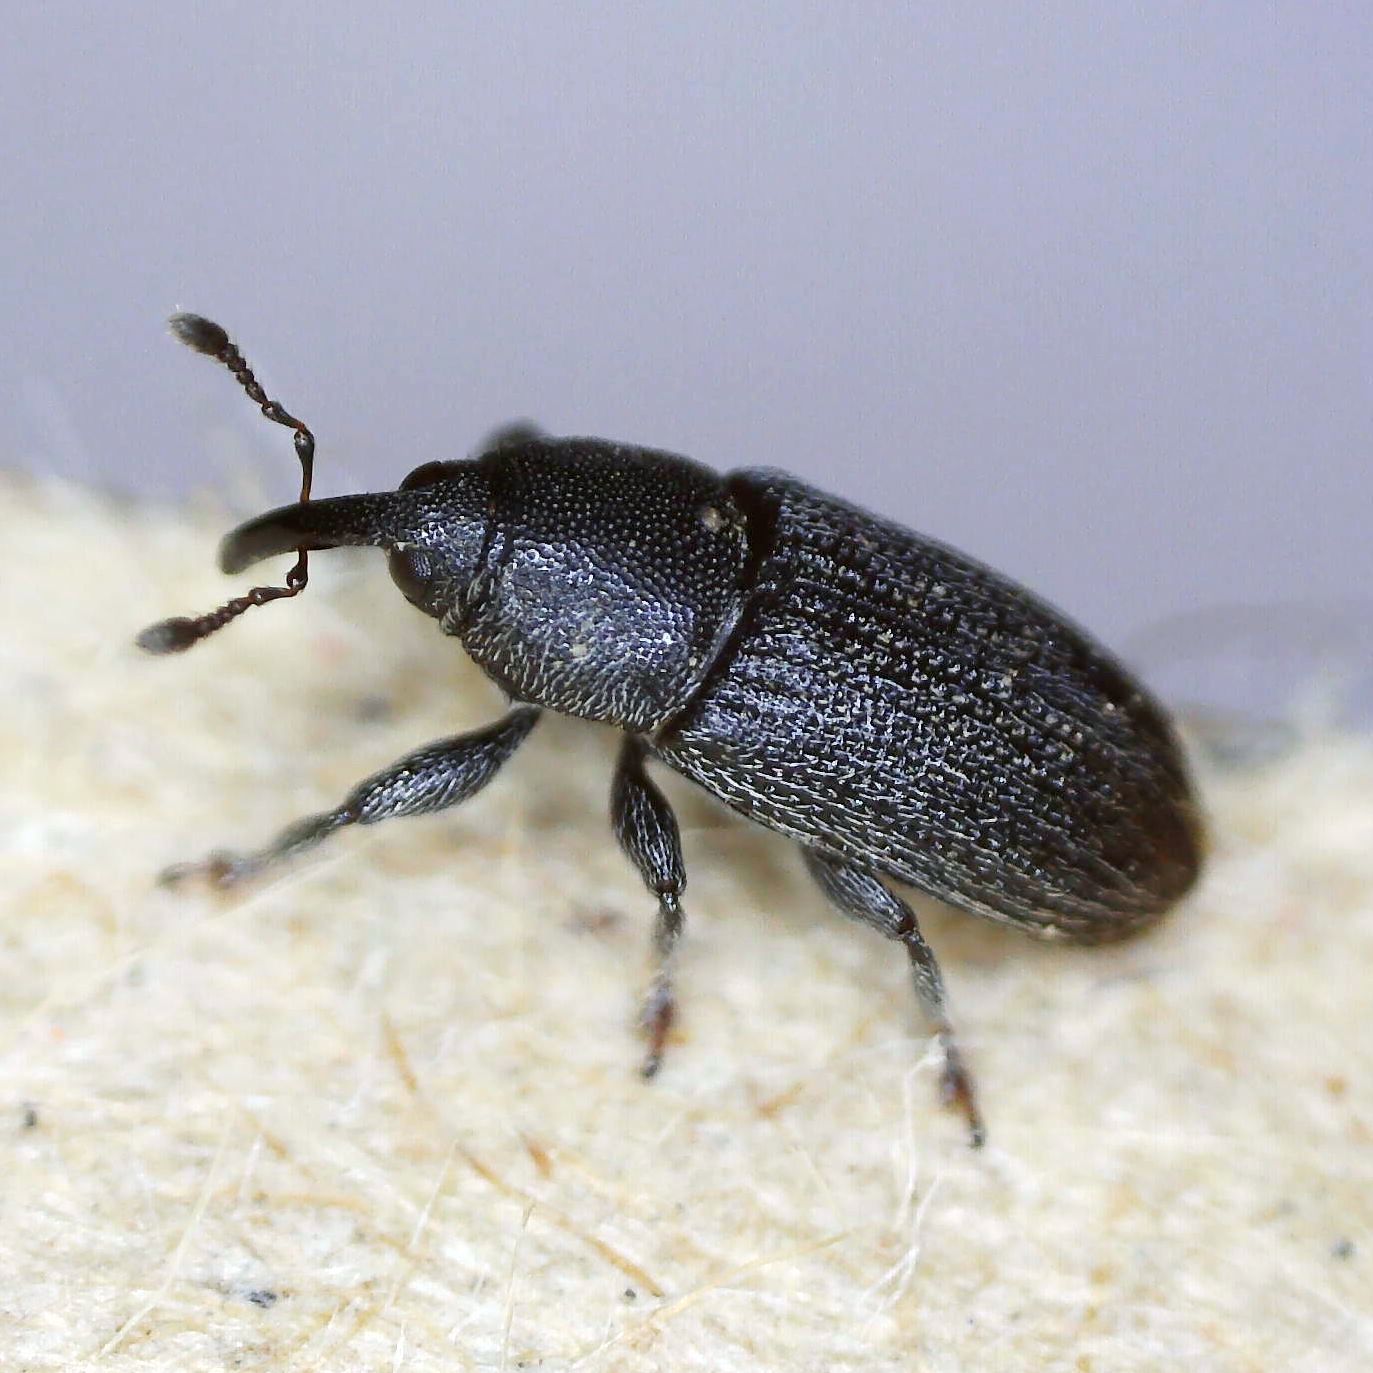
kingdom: Animalia
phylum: Arthropoda
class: Insecta
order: Coleoptera
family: Curculionidae
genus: Mecinus
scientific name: Mecinus pyraster
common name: Weevil
